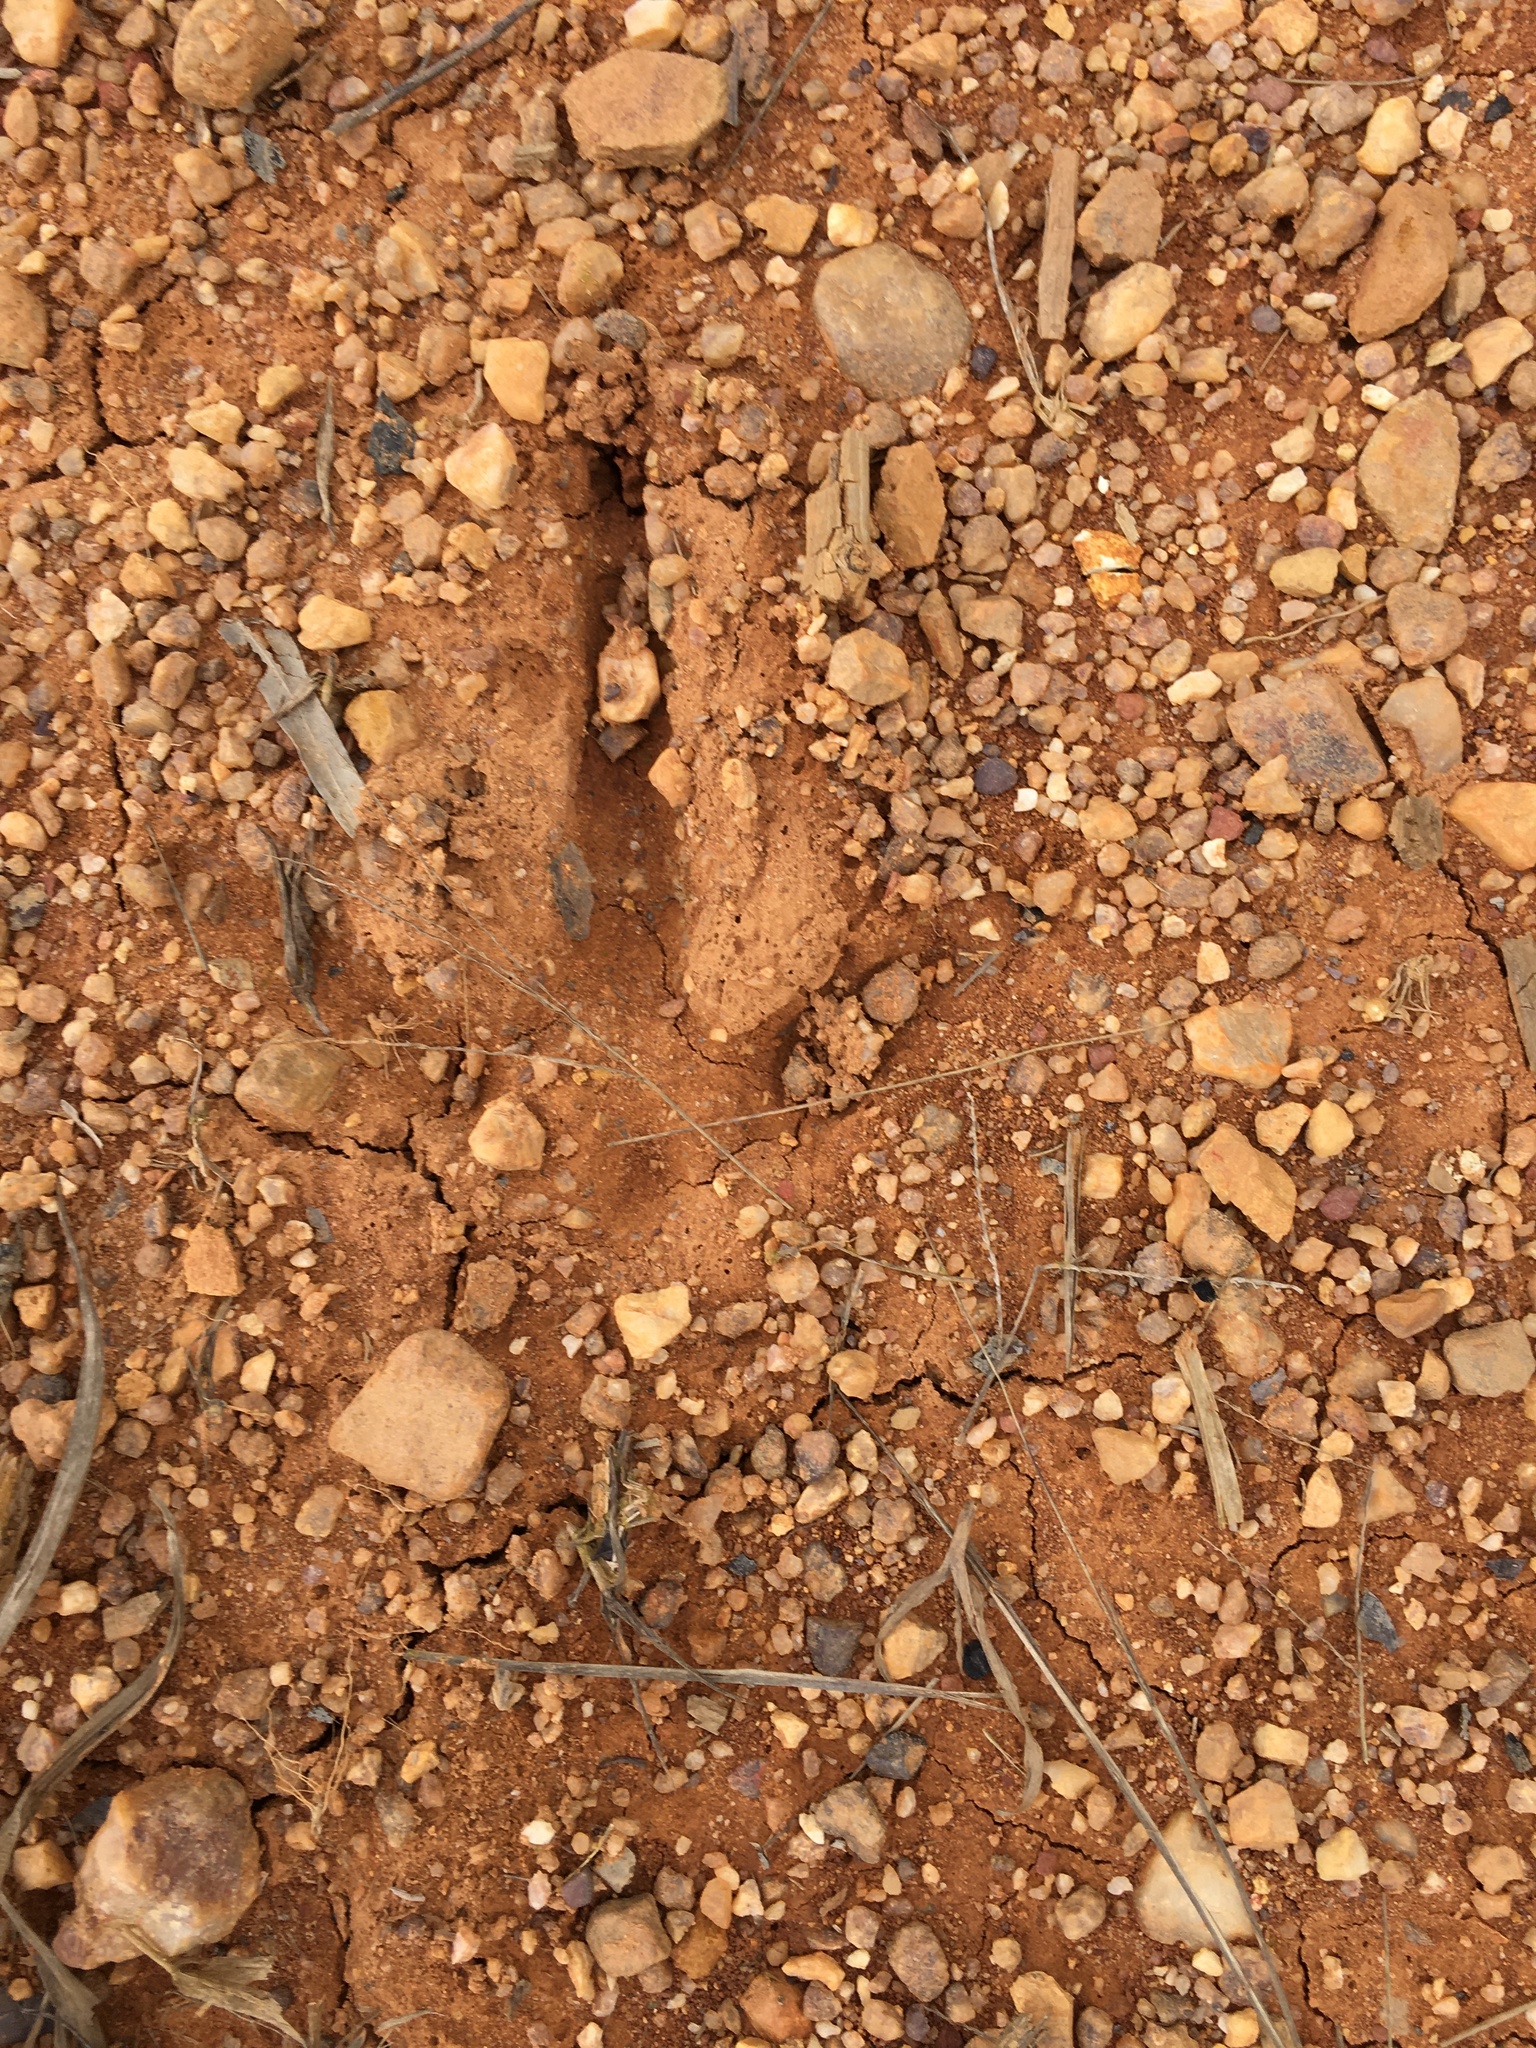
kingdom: Animalia
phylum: Chordata
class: Aves
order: Galliformes
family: Phasianidae
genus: Meleagris
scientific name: Meleagris gallopavo
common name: Wild turkey
